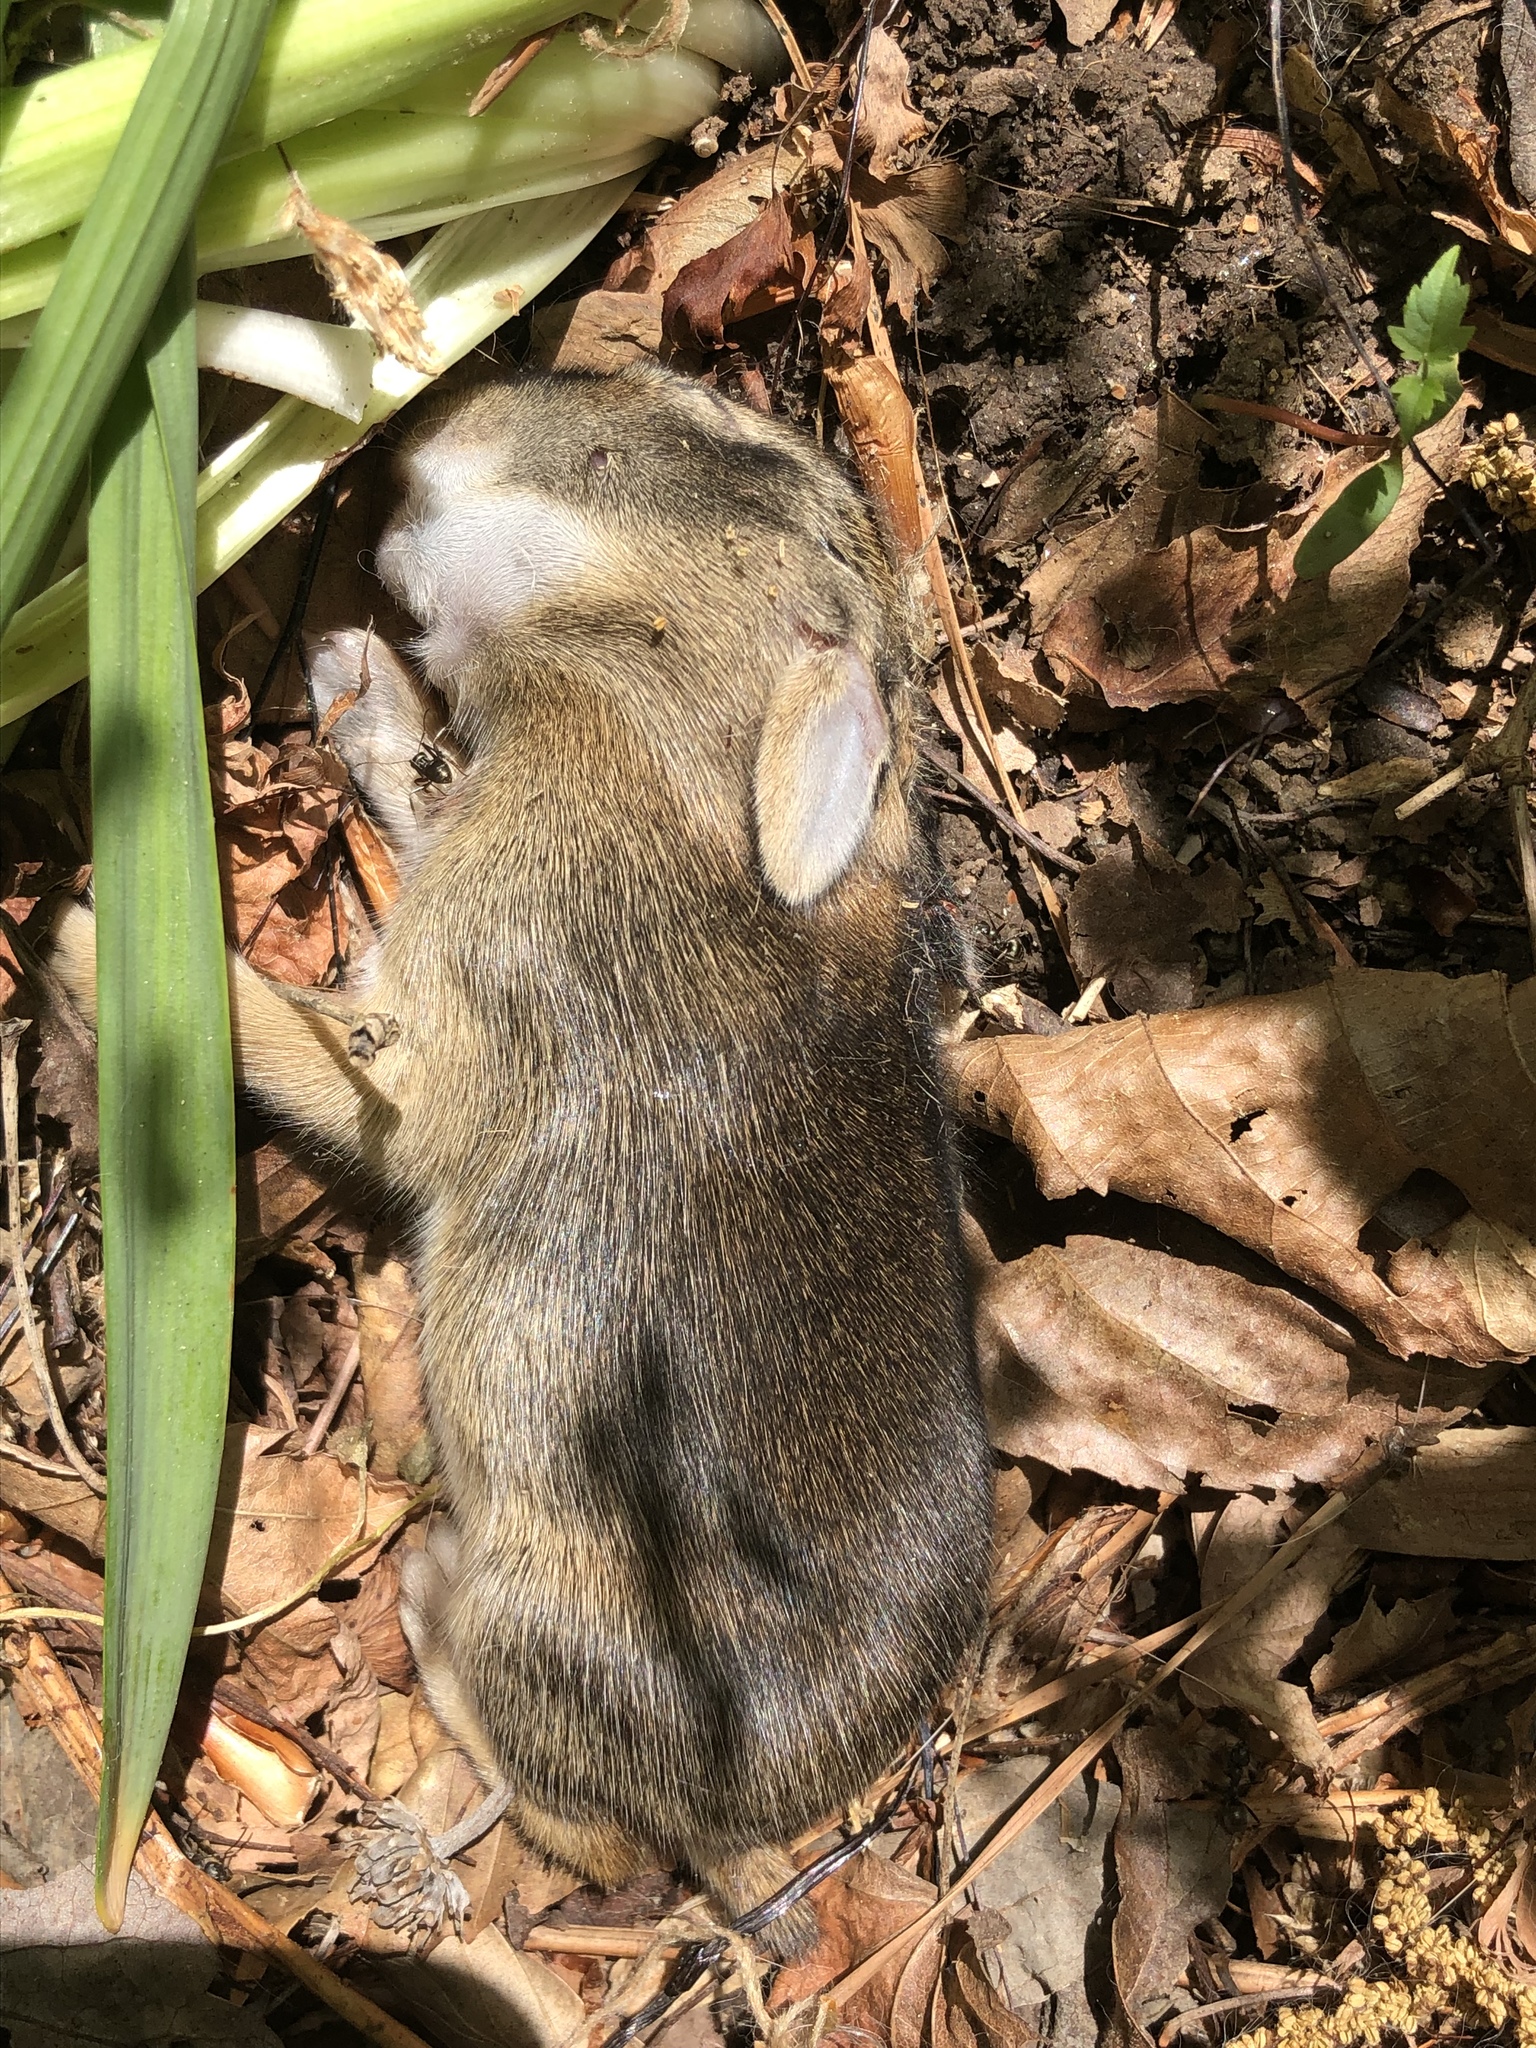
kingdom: Animalia
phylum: Chordata
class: Mammalia
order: Lagomorpha
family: Leporidae
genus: Sylvilagus
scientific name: Sylvilagus floridanus
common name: Eastern cottontail
